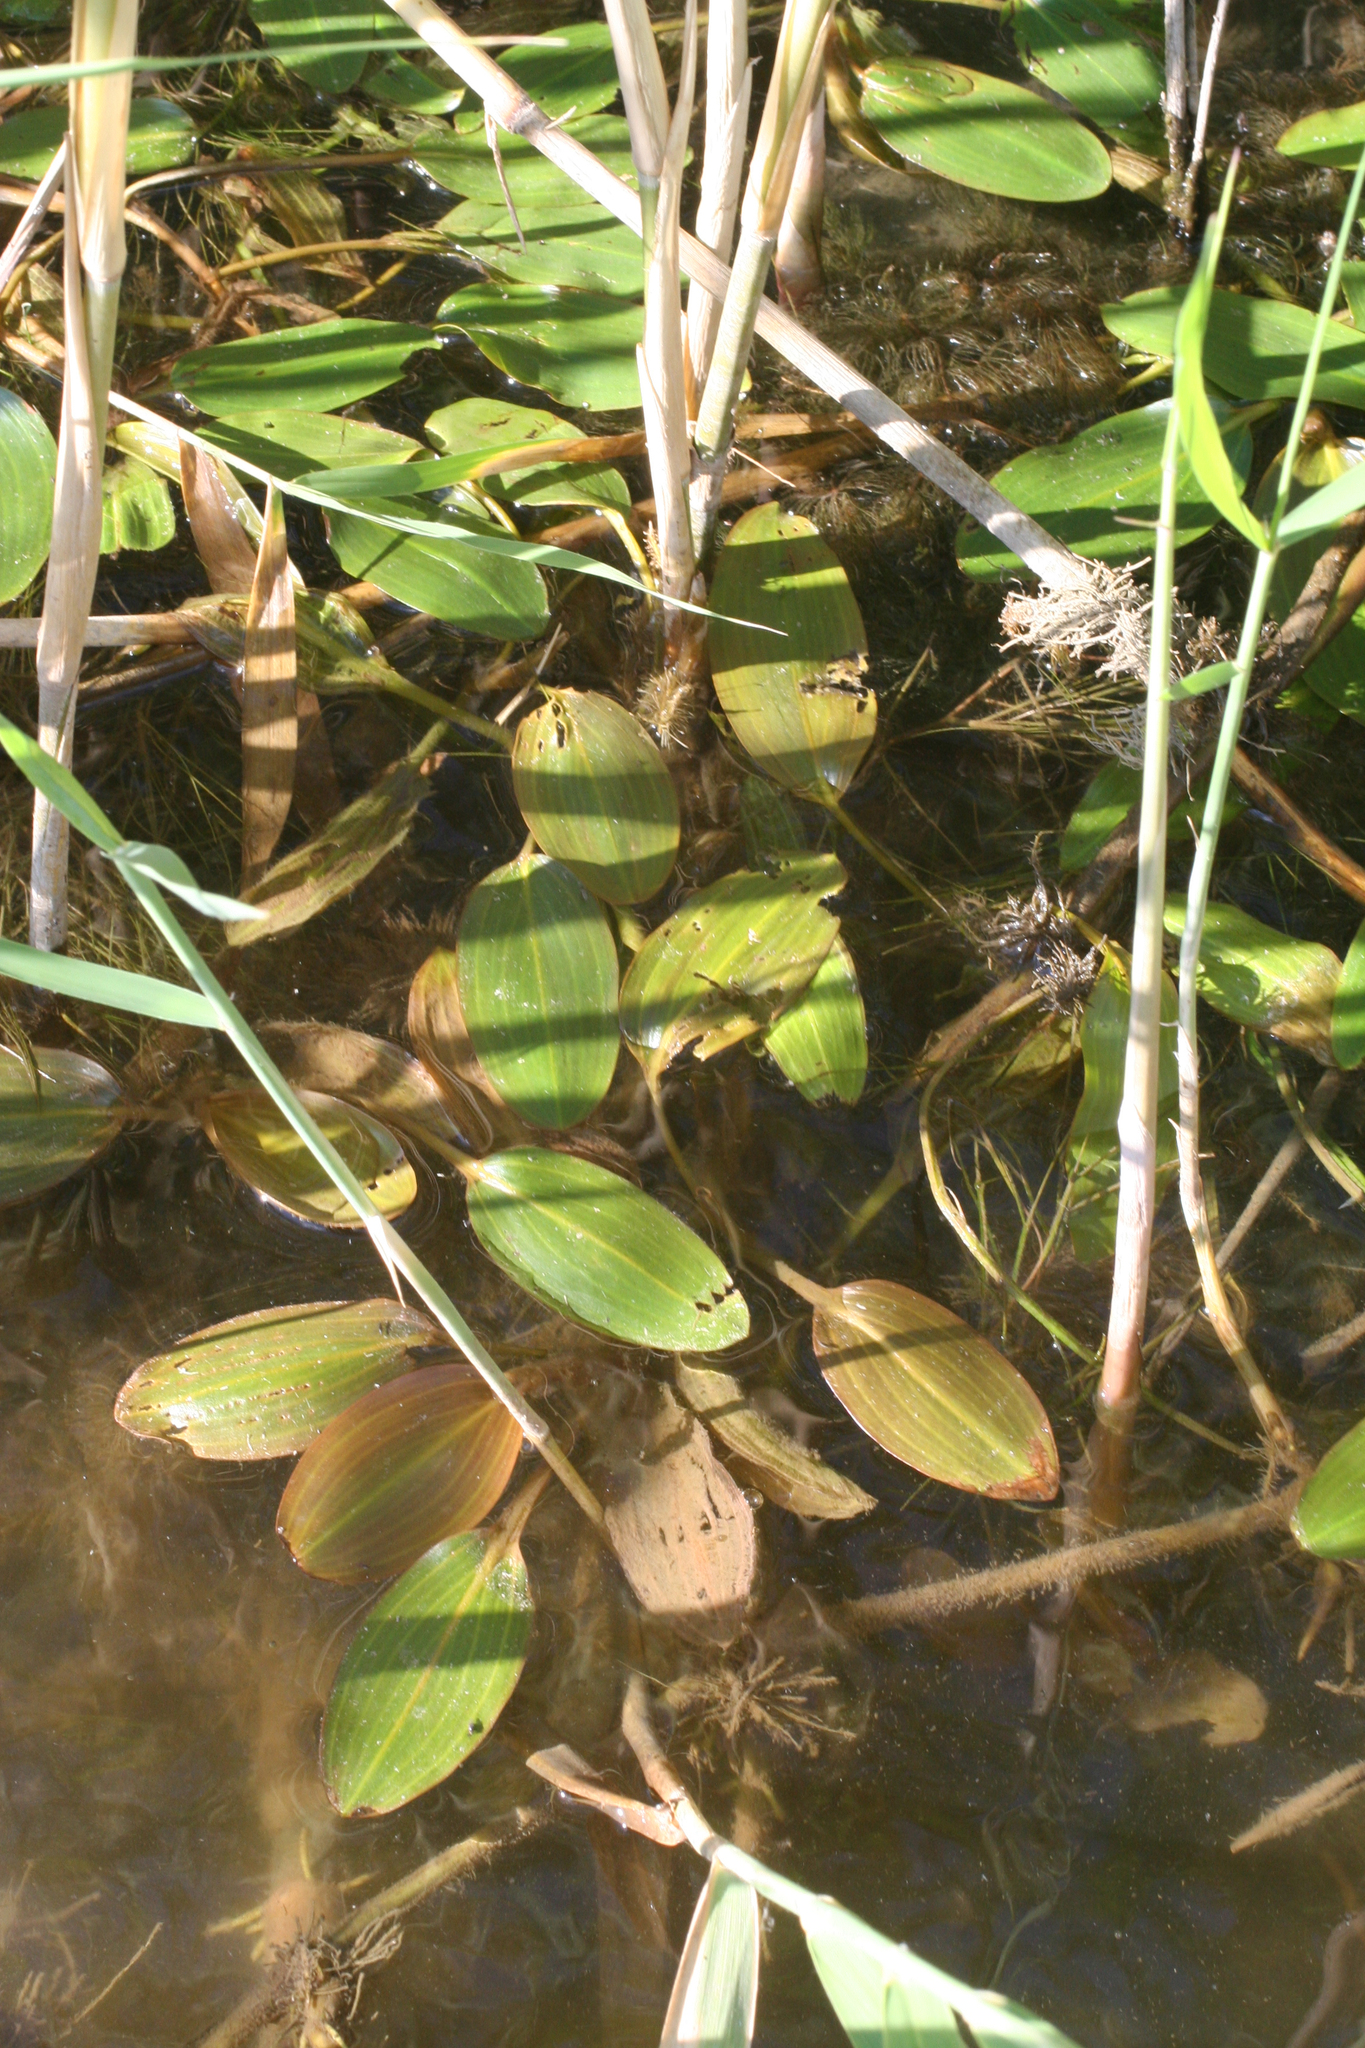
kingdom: Plantae
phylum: Tracheophyta
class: Liliopsida
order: Alismatales
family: Potamogetonaceae
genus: Potamogeton
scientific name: Potamogeton nodosus
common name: Loddon pondweed
